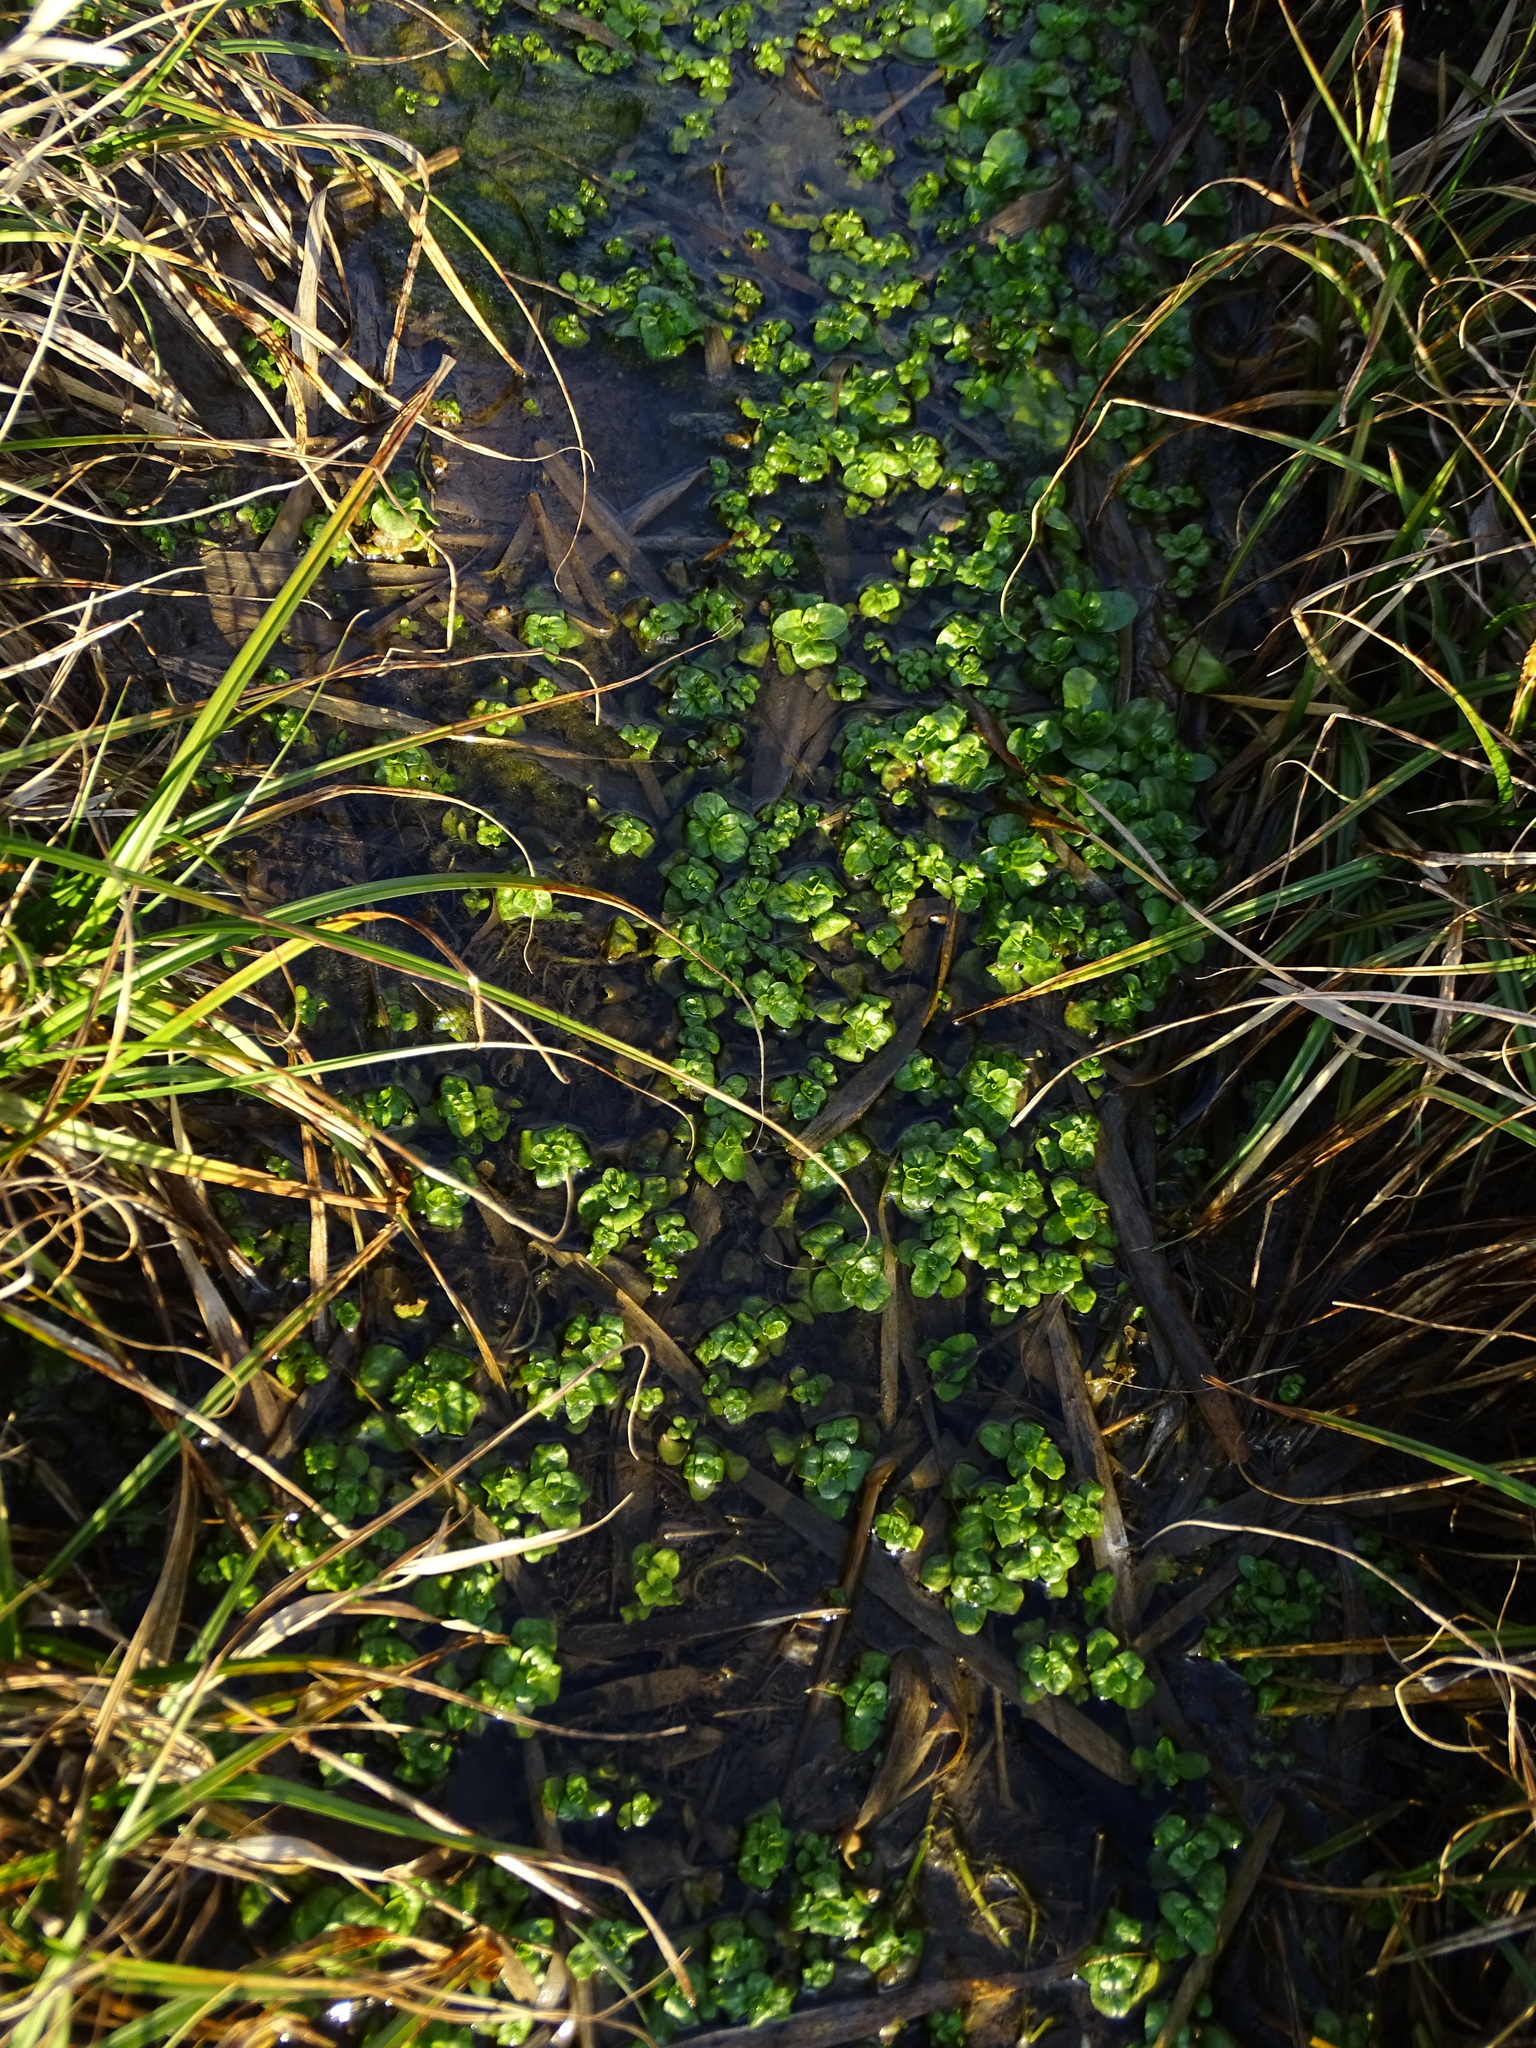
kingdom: Plantae
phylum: Tracheophyta
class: Magnoliopsida
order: Lamiales
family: Plantaginaceae
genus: Veronica
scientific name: Veronica beccabunga
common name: Brooklime
